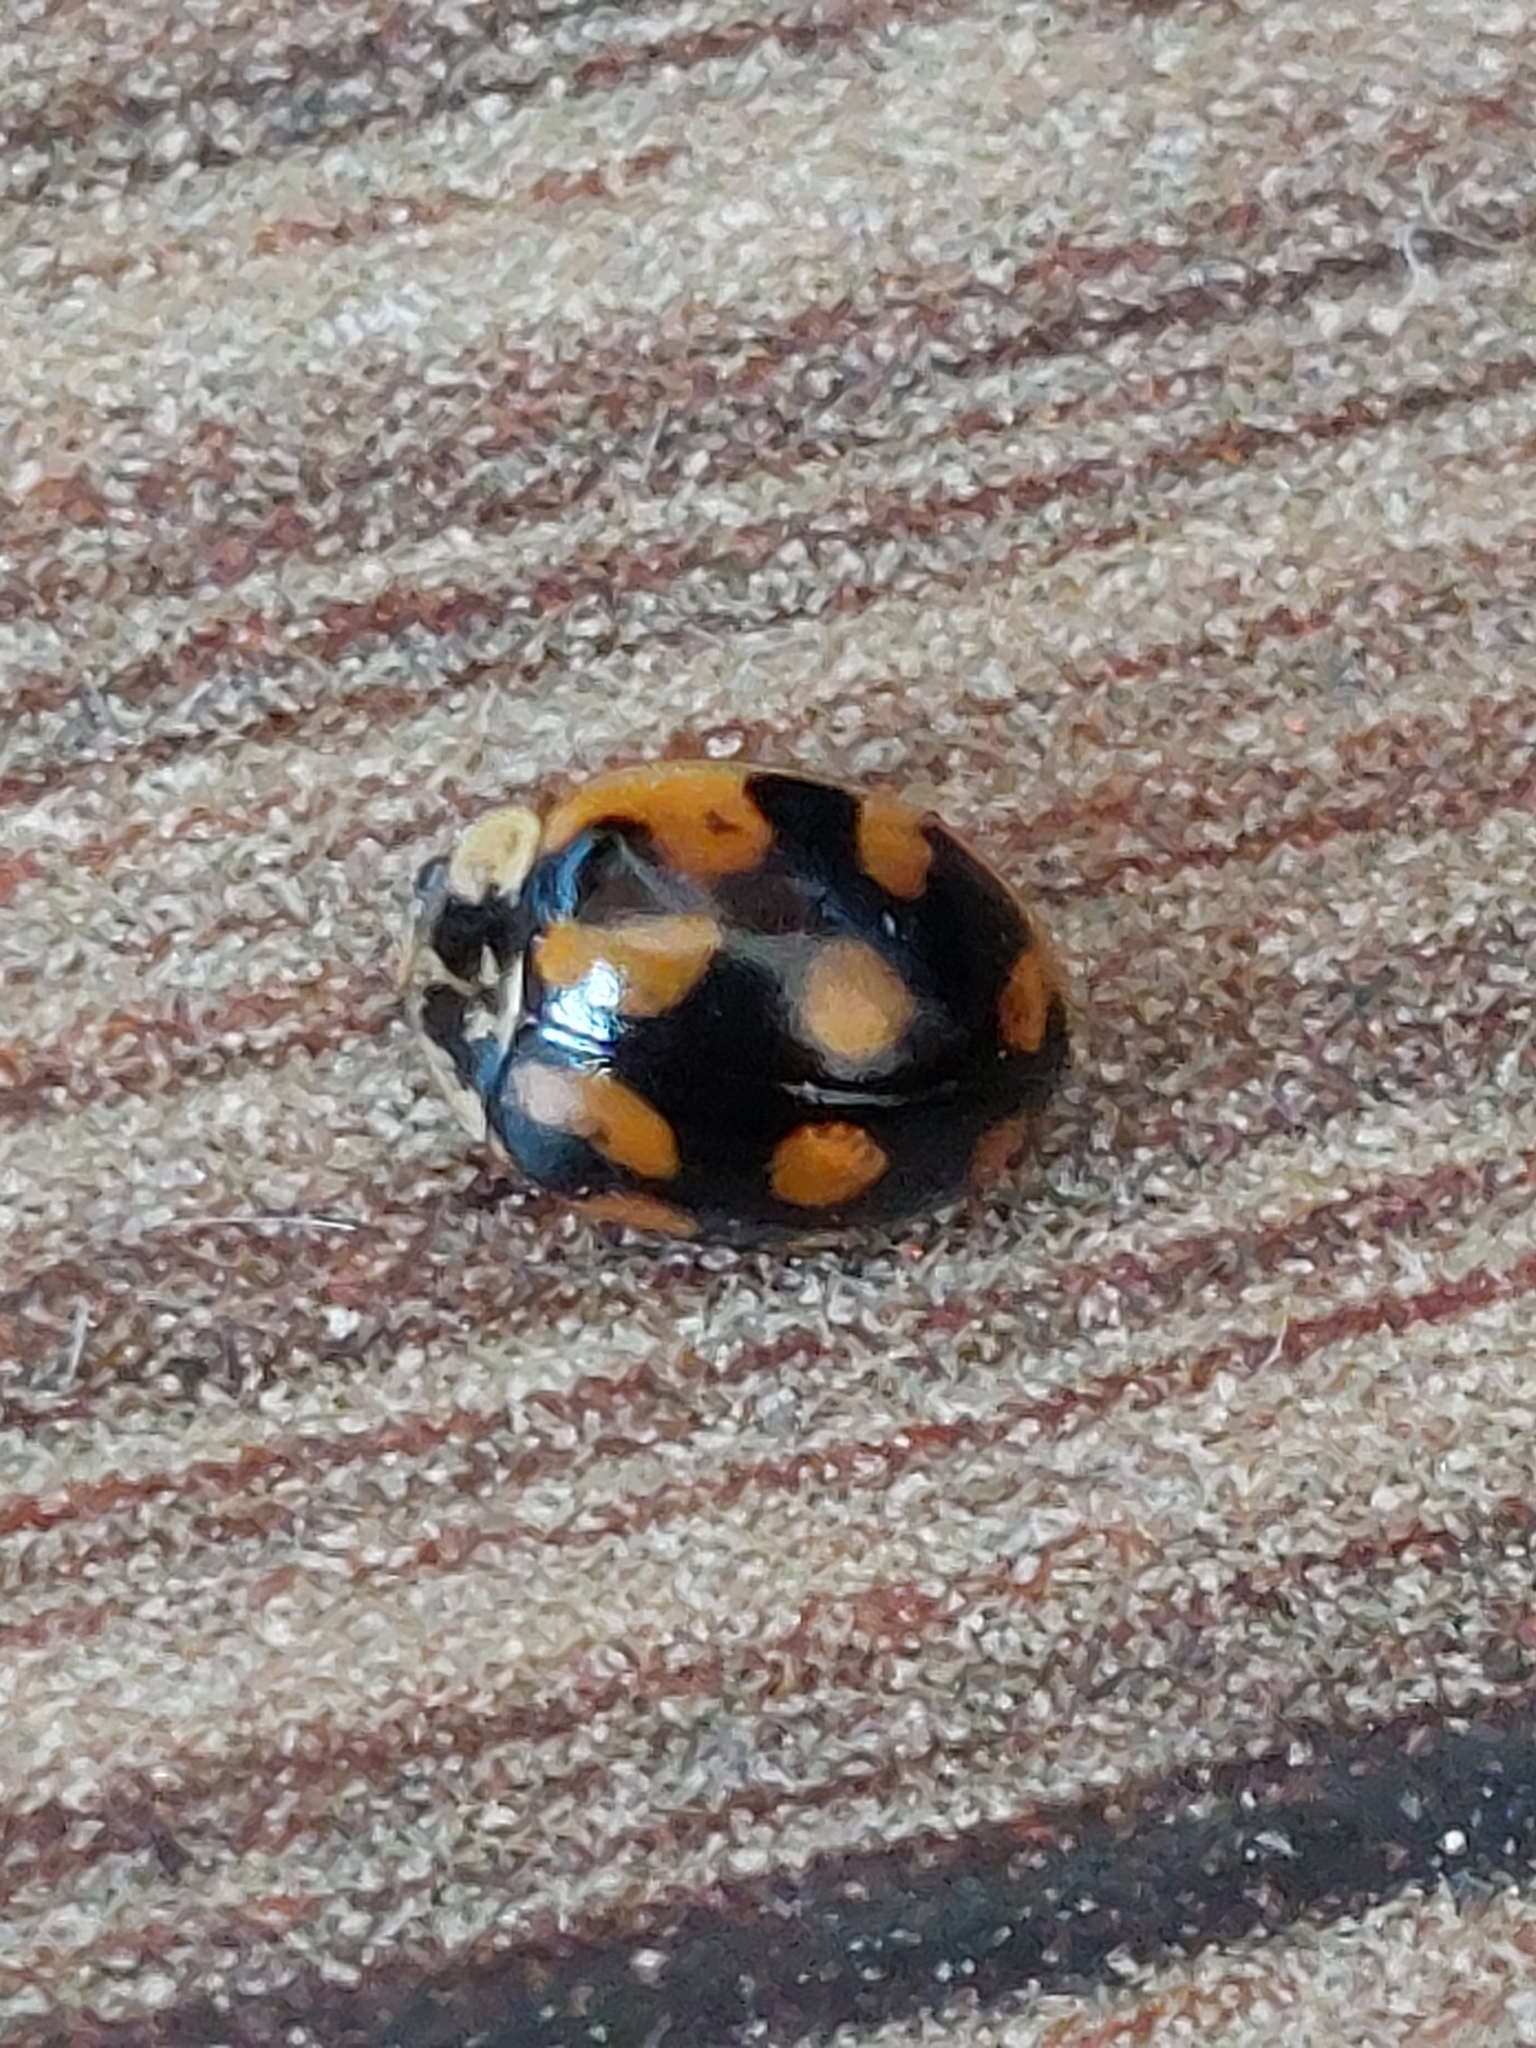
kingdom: Animalia
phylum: Arthropoda
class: Insecta
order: Coleoptera
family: Coccinellidae
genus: Adalia
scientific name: Adalia decempunctata
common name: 10-spot ladybird
